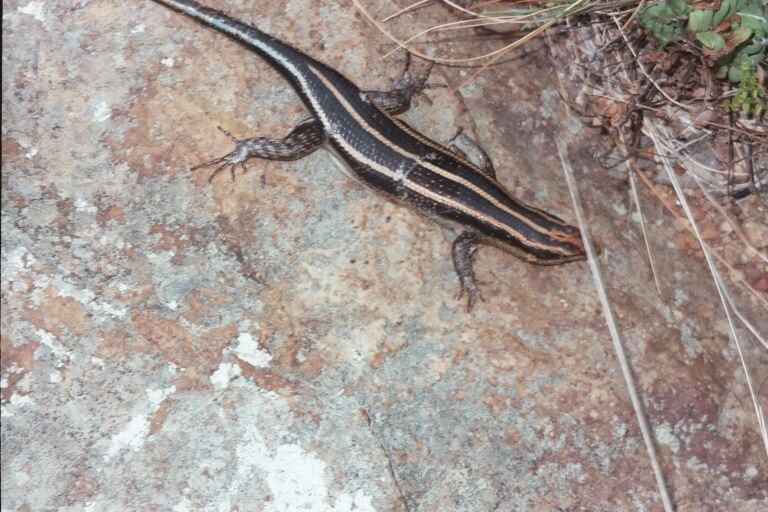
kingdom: Animalia
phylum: Chordata
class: Squamata
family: Scincidae
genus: Trachylepis
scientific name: Trachylepis margaritifera
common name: Rainbow skink
